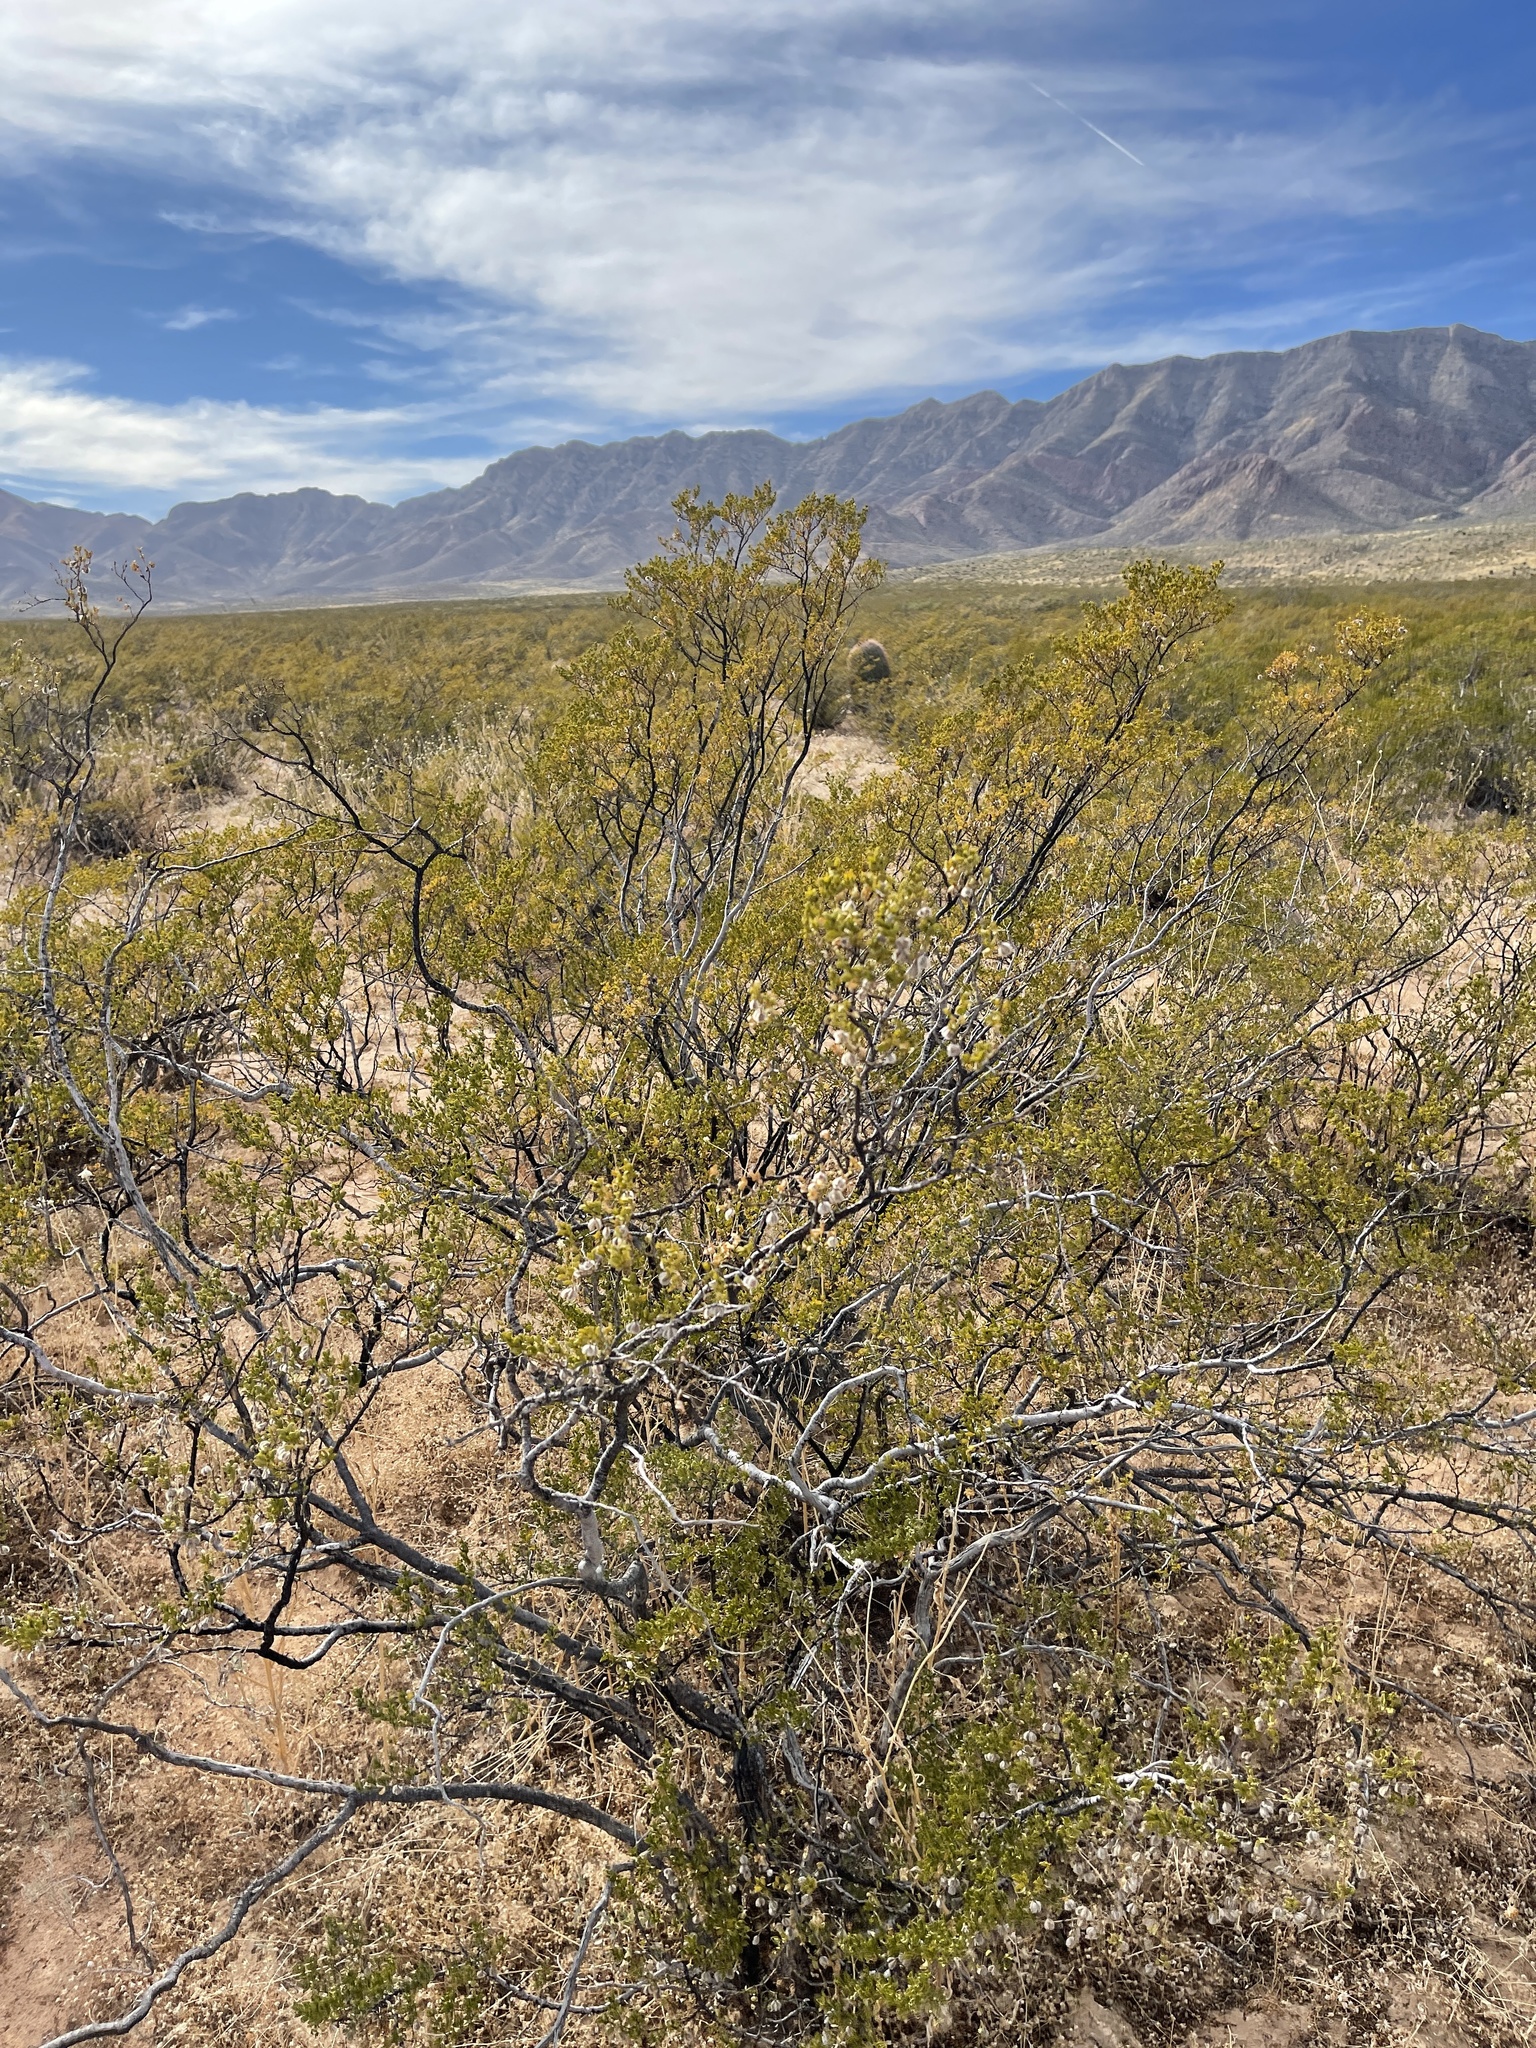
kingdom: Plantae
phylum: Tracheophyta
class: Magnoliopsida
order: Zygophyllales
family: Zygophyllaceae
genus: Larrea
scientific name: Larrea tridentata
